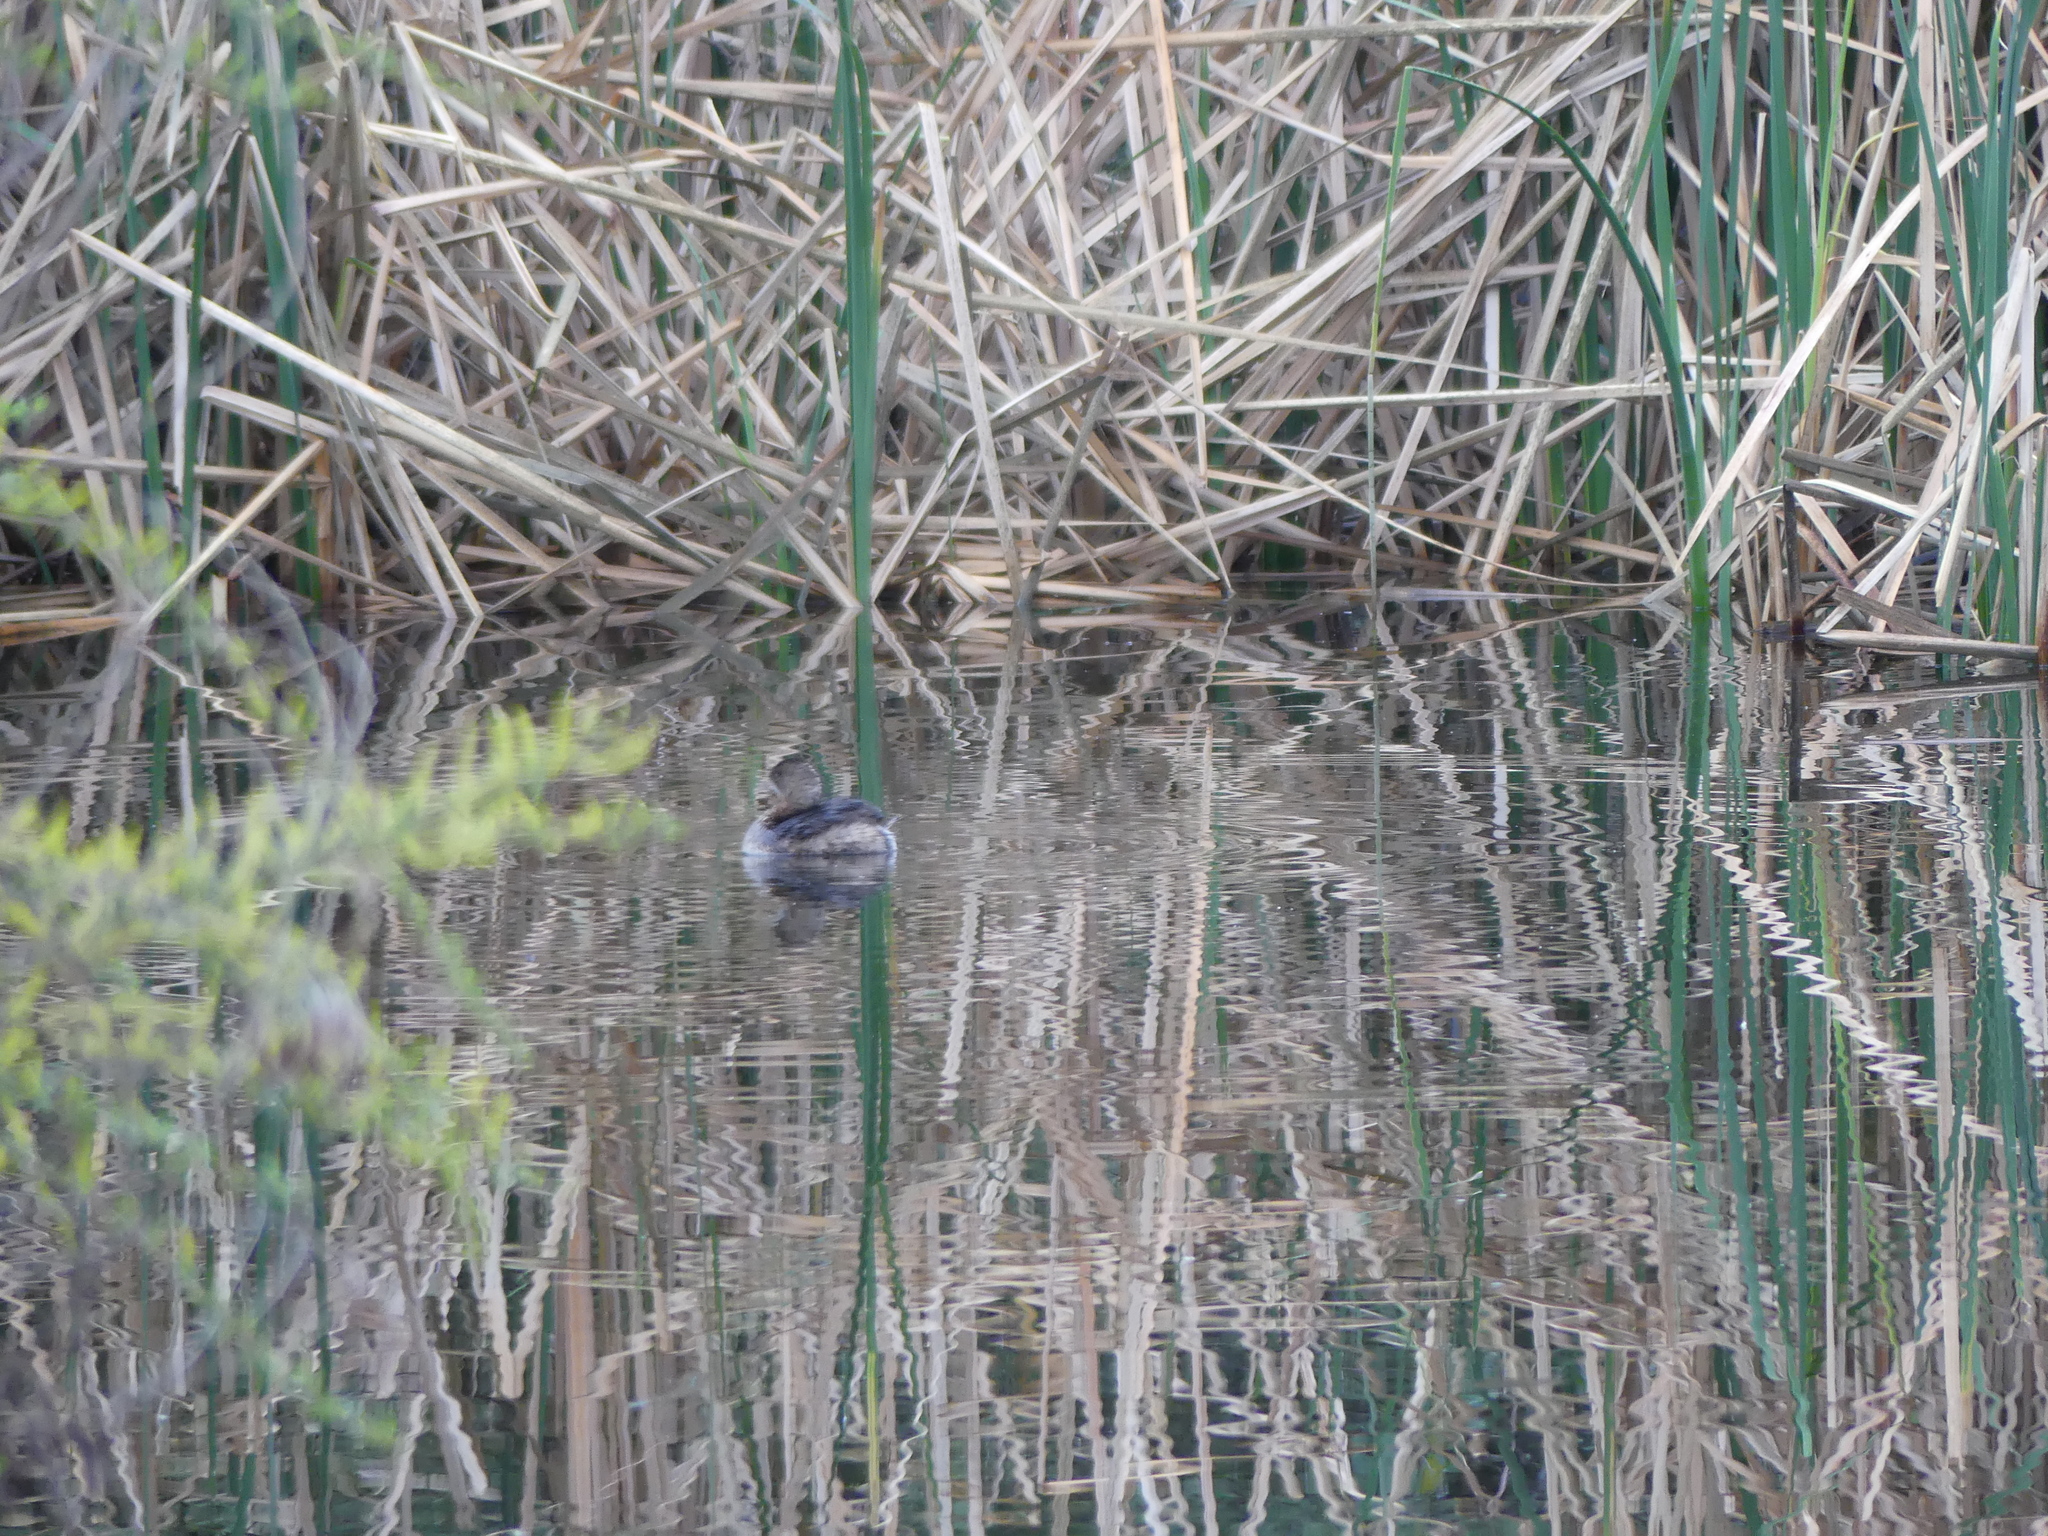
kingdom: Animalia
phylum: Chordata
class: Aves
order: Podicipediformes
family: Podicipedidae
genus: Podilymbus
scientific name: Podilymbus podiceps
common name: Pied-billed grebe
